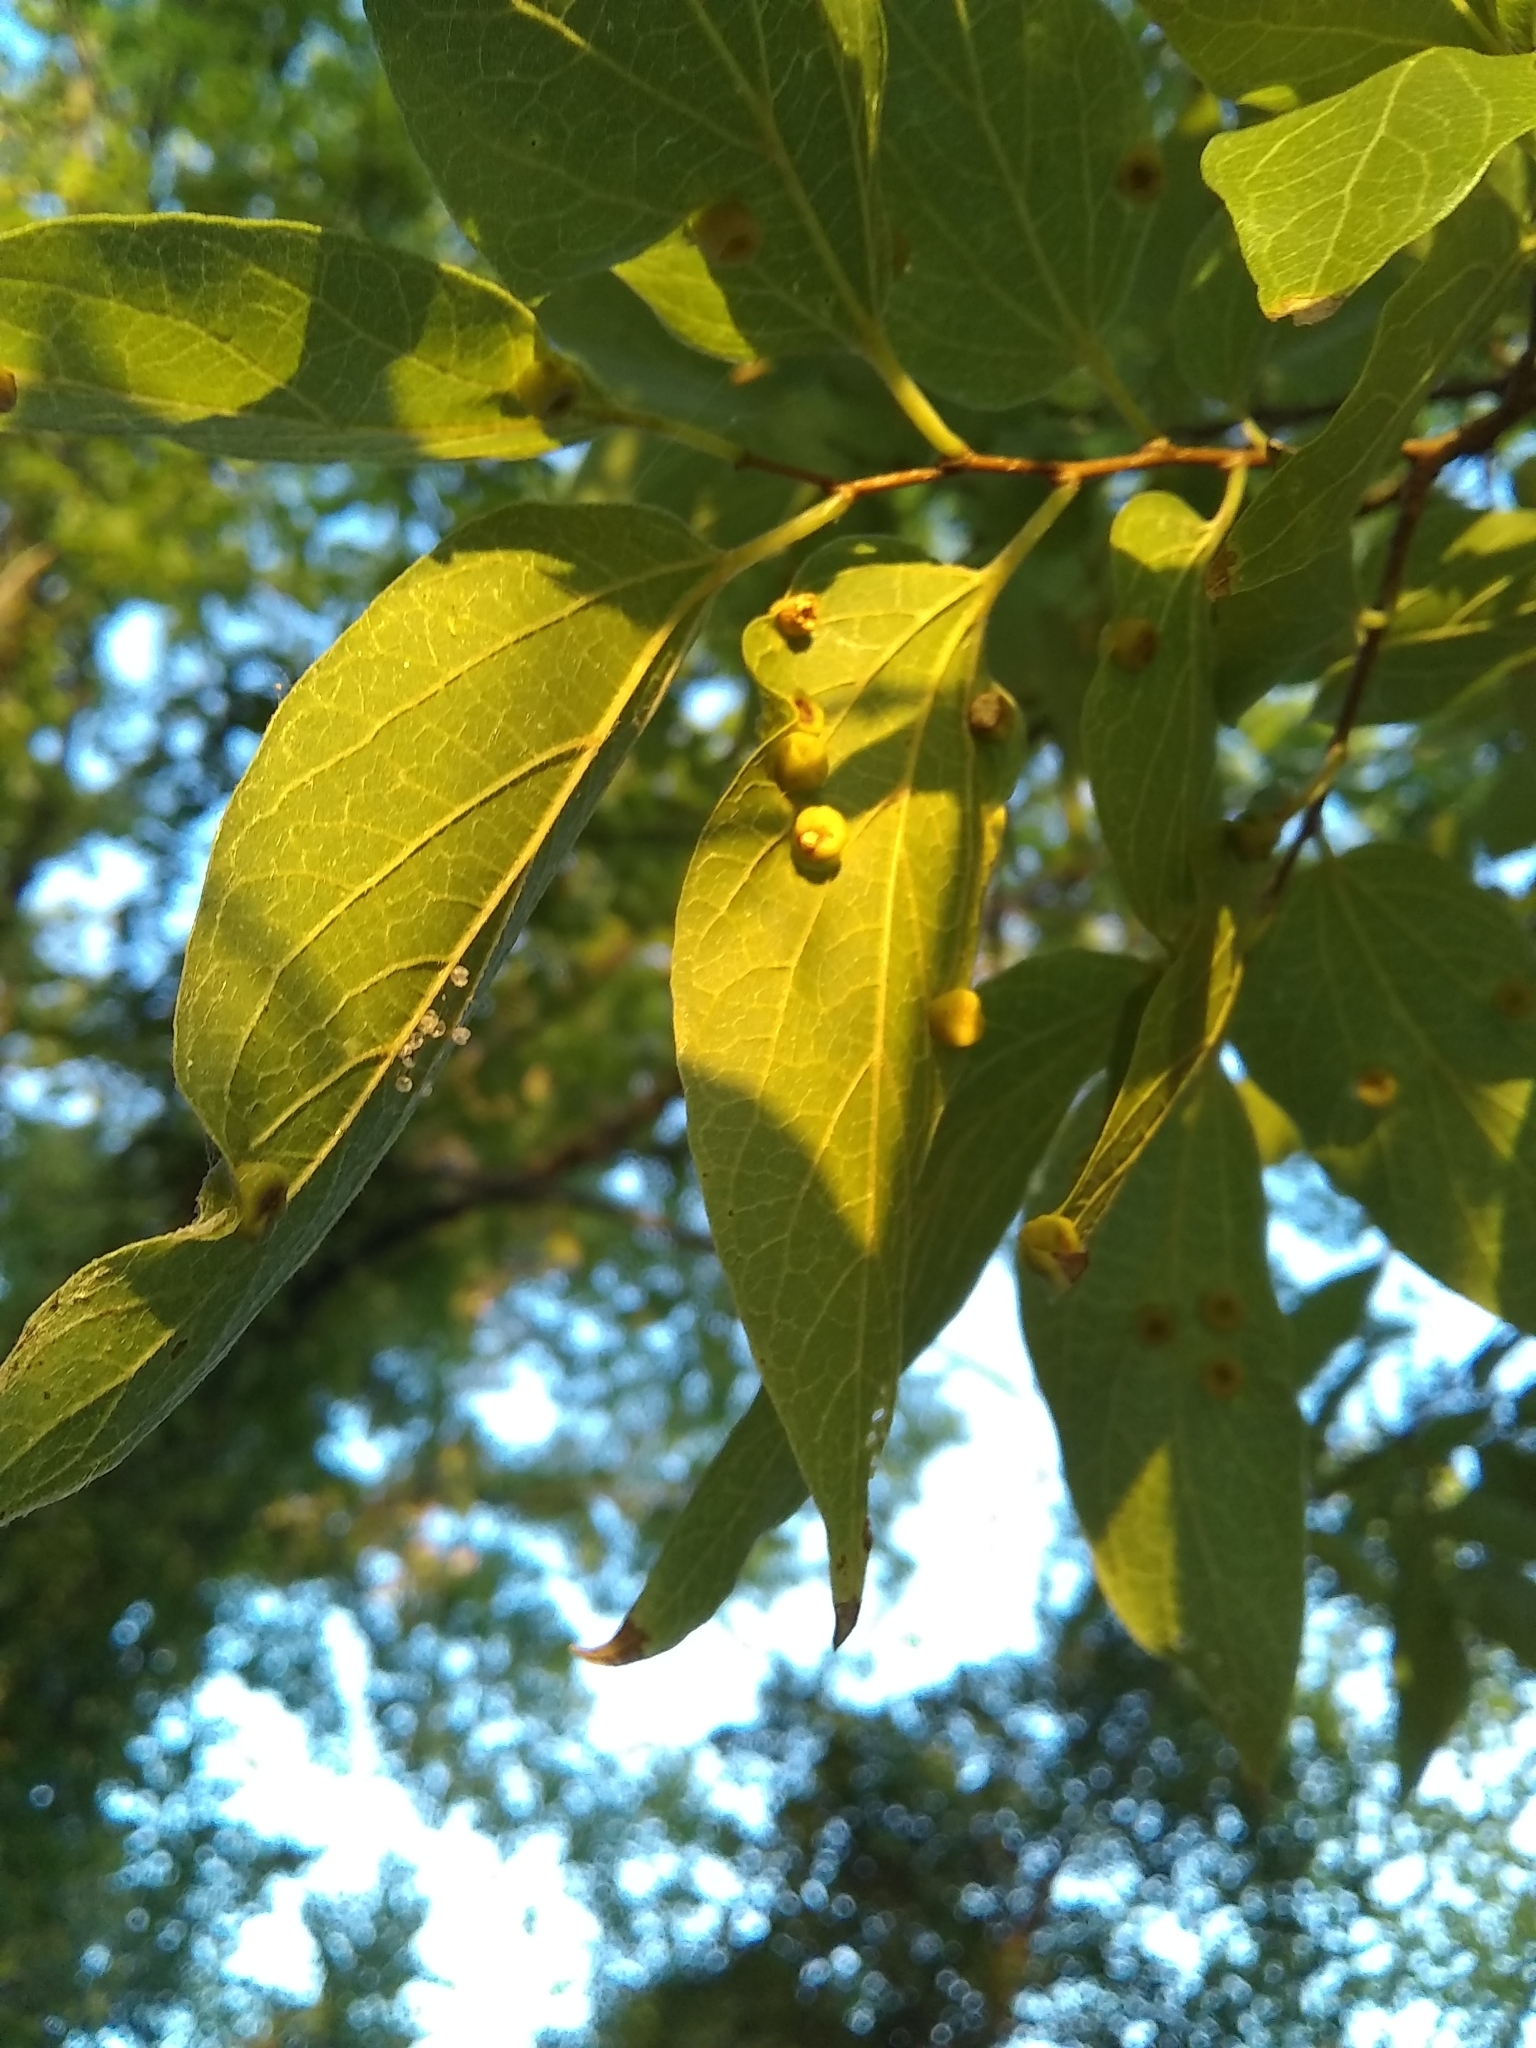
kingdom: Animalia
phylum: Arthropoda
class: Insecta
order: Hemiptera
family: Aphalaridae
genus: Pachypsylla
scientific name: Pachypsylla celtidismamma
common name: Hackberry nipplegall psyllid
